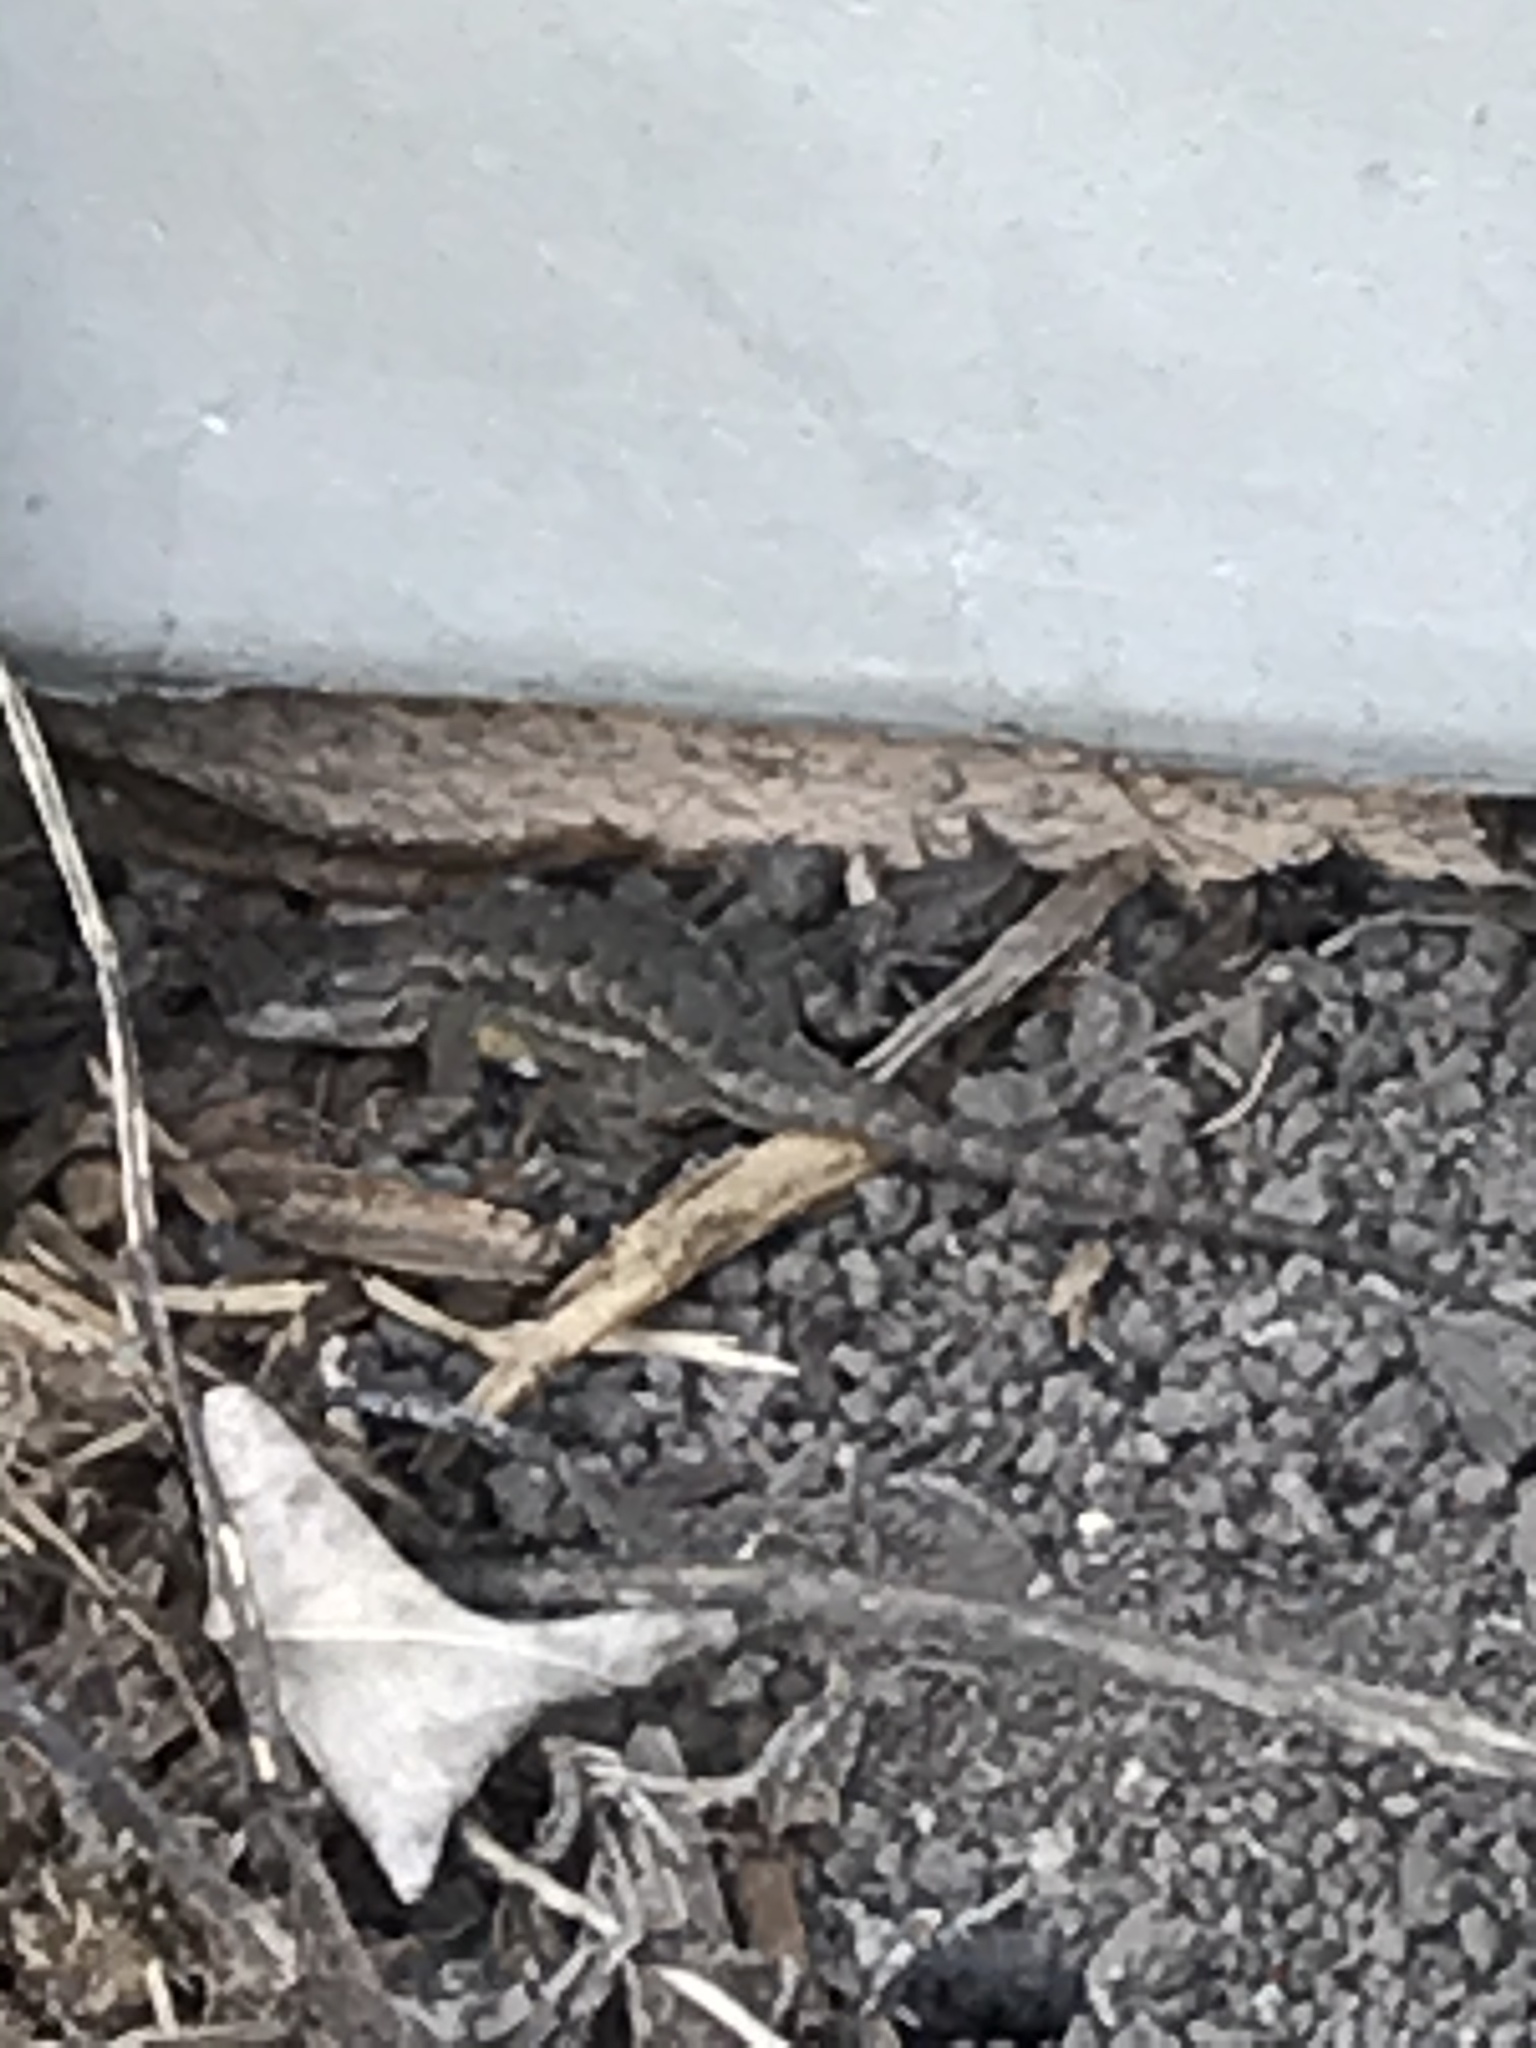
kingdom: Animalia
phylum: Chordata
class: Squamata
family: Phrynosomatidae
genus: Sceloporus
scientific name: Sceloporus occidentalis
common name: Western fence lizard
